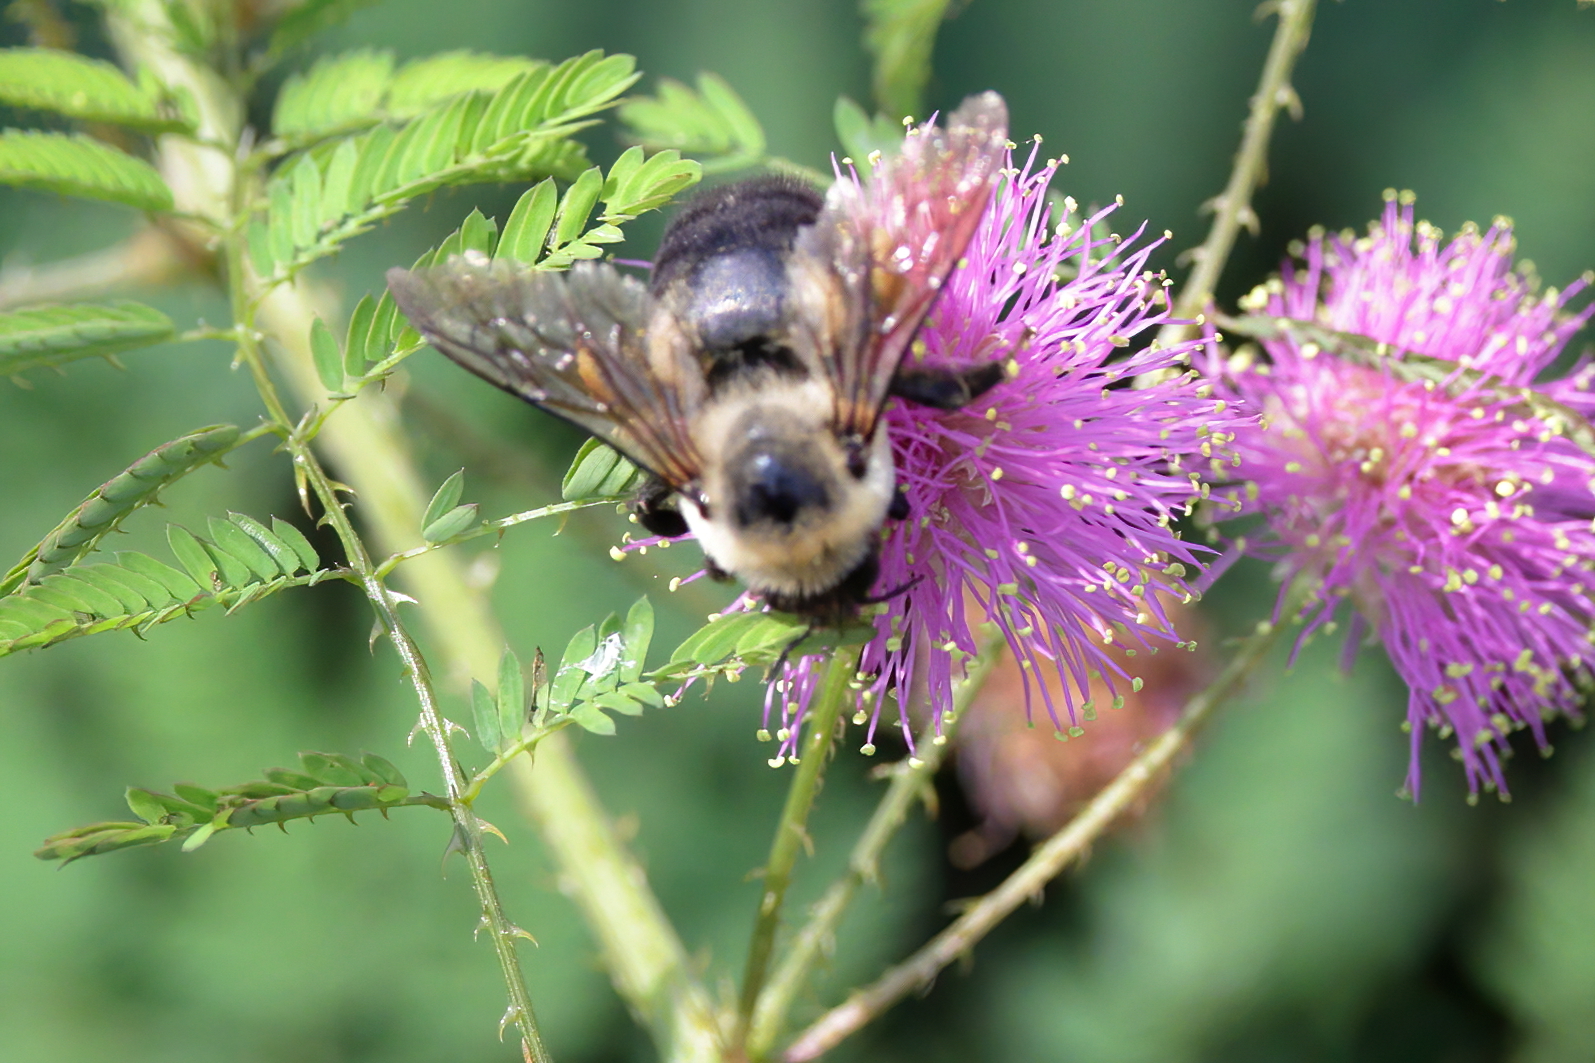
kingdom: Animalia
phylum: Arthropoda
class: Insecta
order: Hymenoptera
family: Apidae
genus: Bombus
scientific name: Bombus griseocollis
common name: Brown-belted bumble bee
